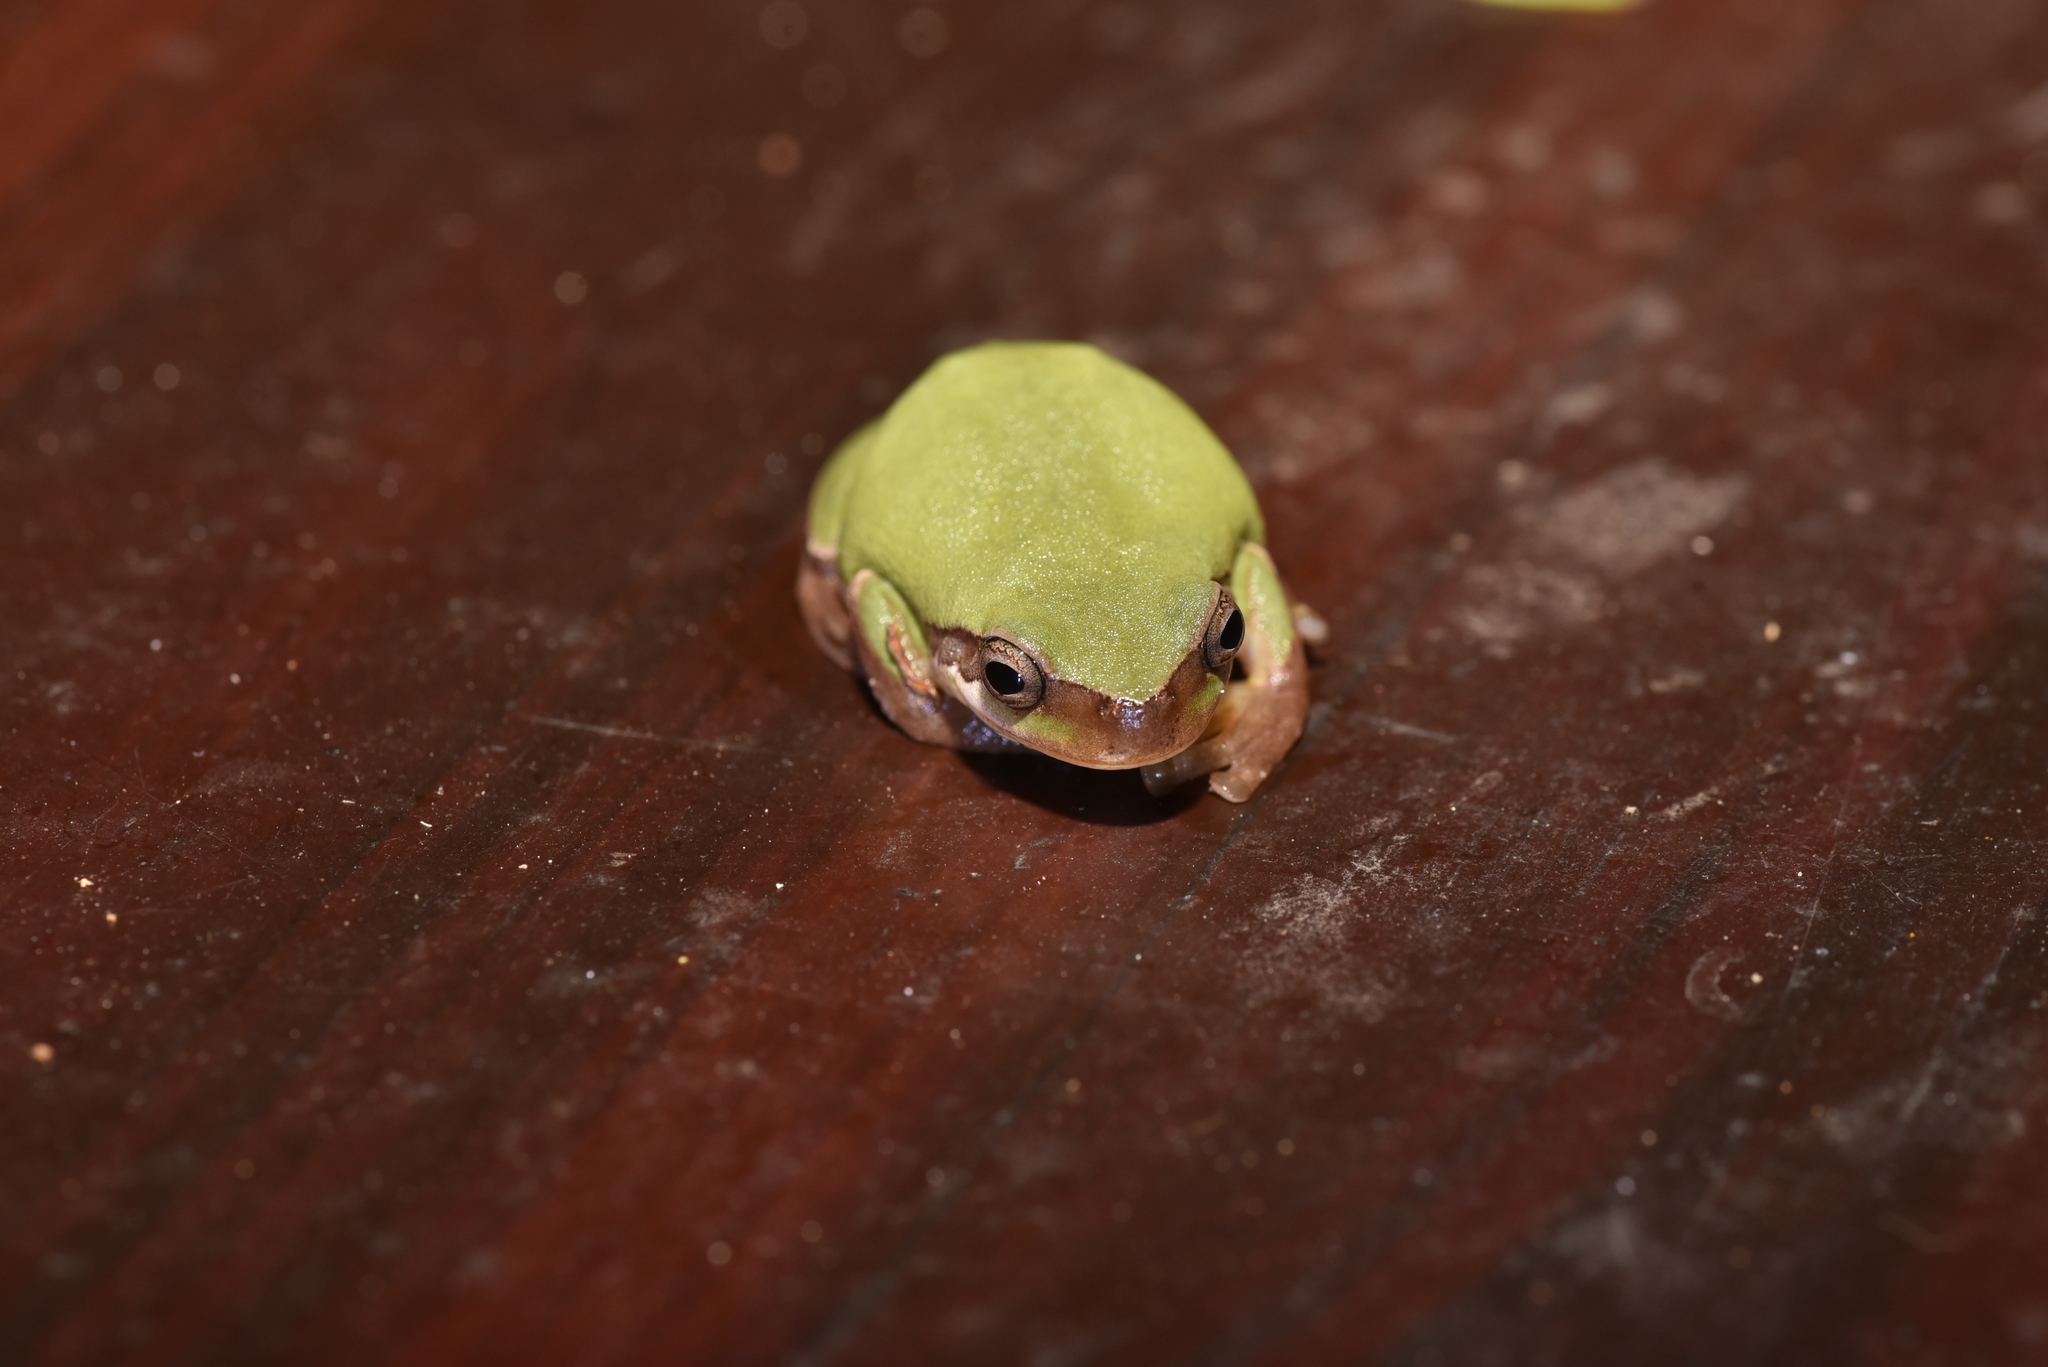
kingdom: Animalia
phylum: Chordata
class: Amphibia
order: Anura
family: Hylidae
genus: Hyla
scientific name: Hyla chinensis
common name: Common chinese treefrog
